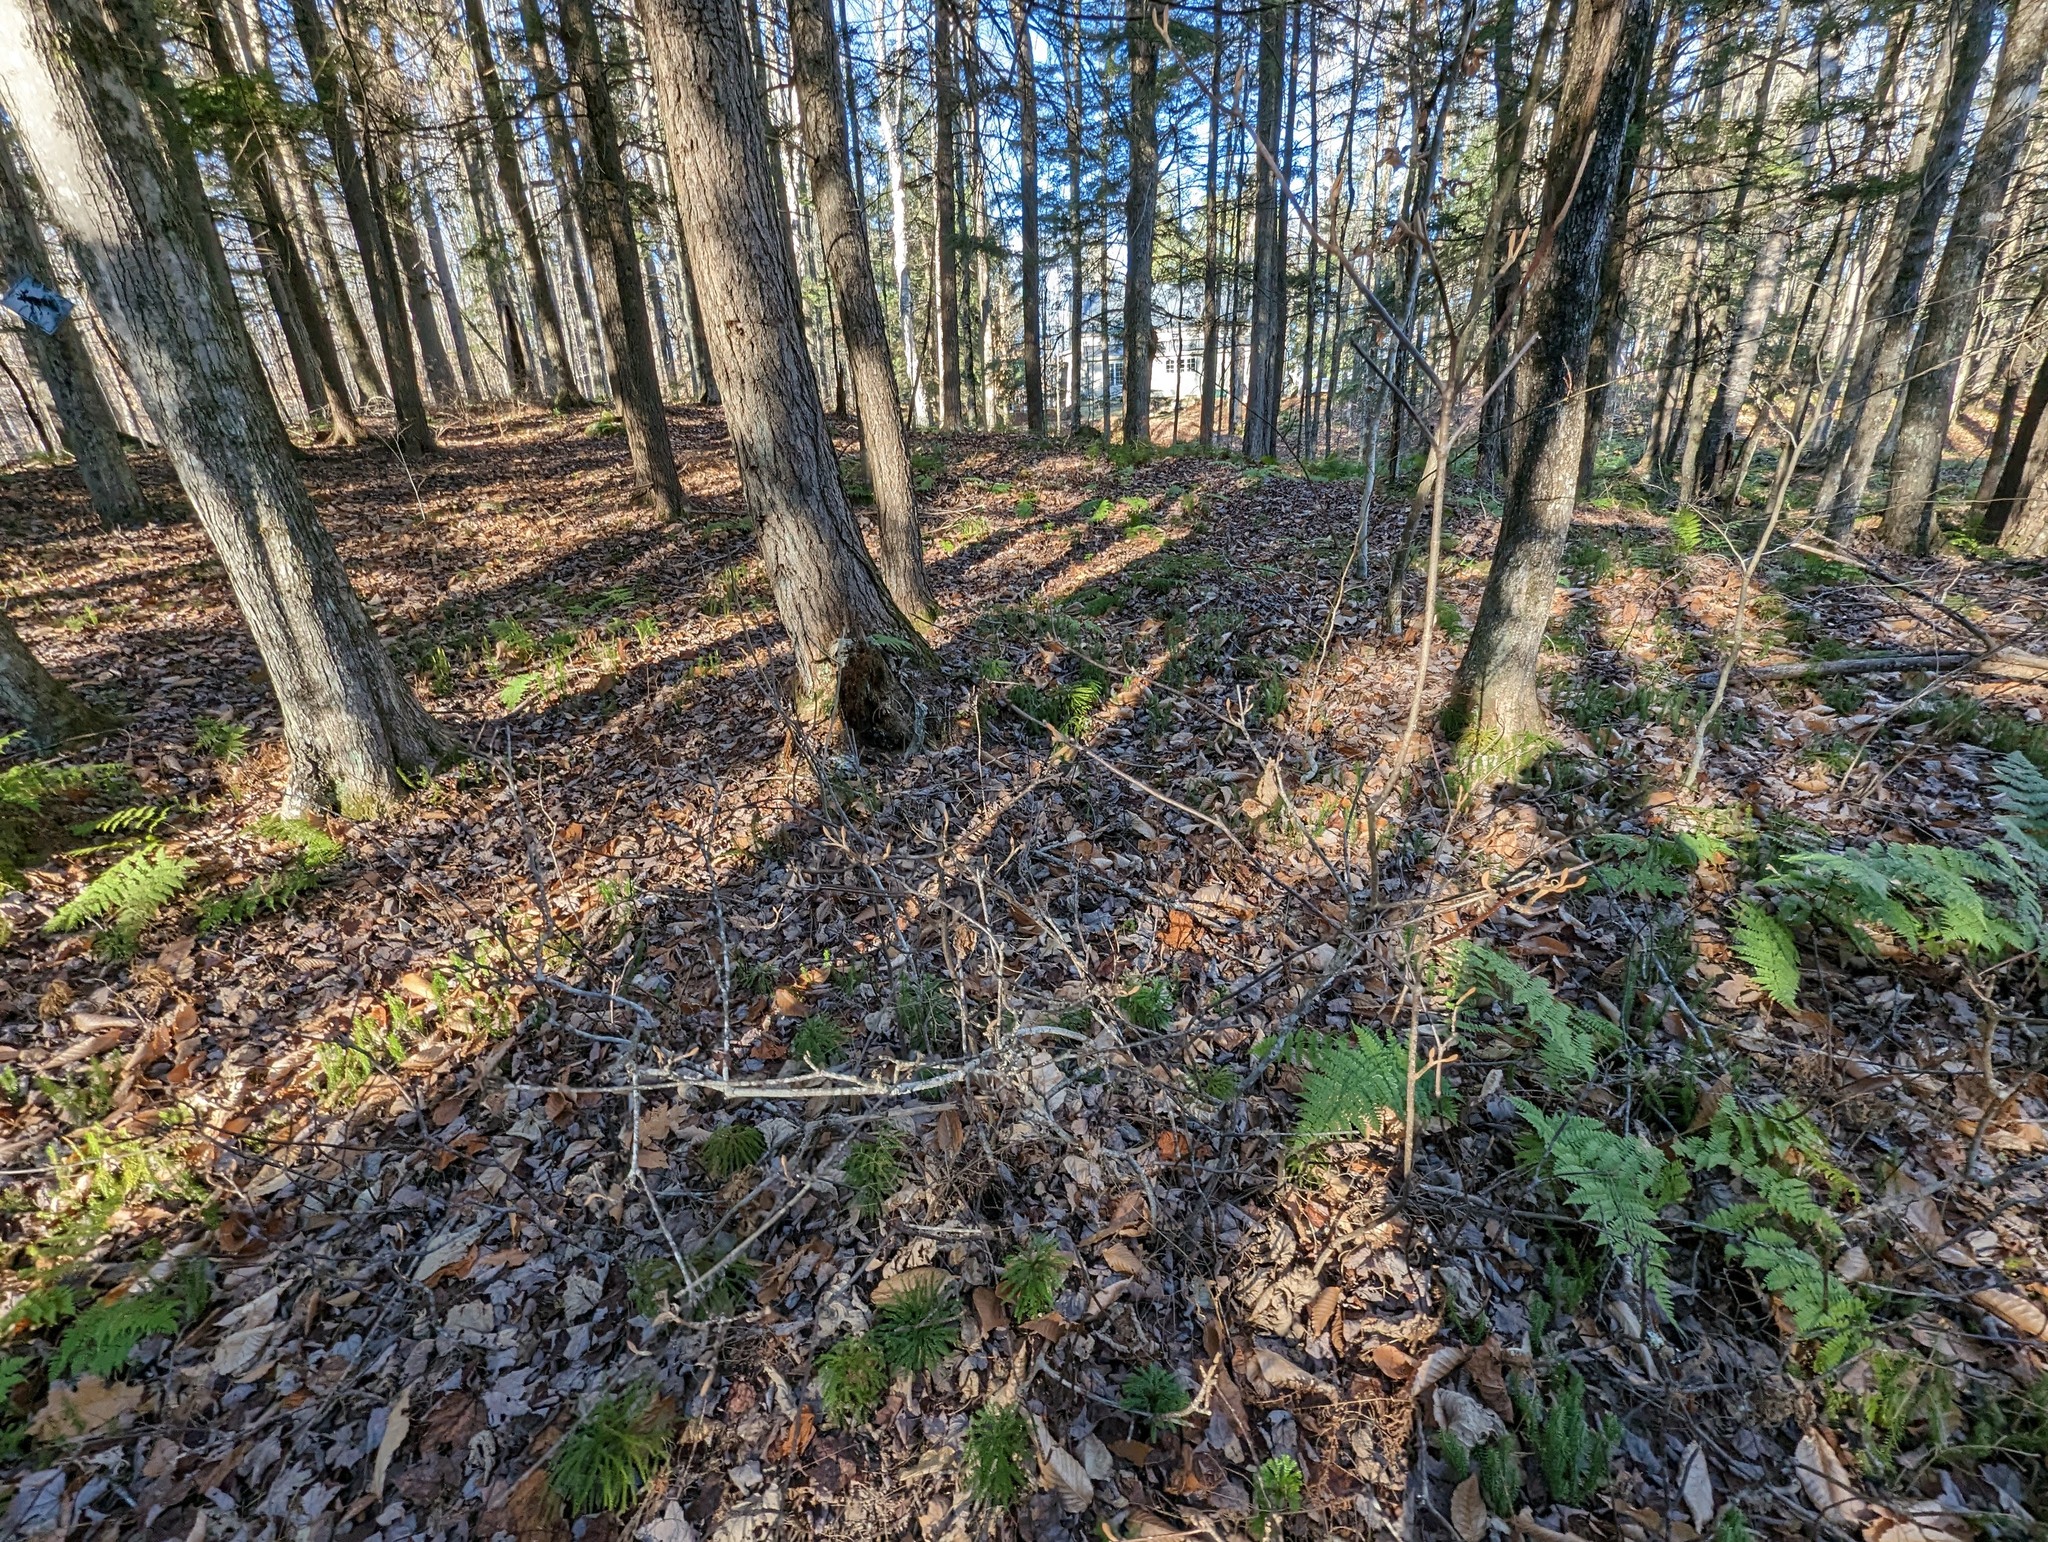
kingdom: Plantae
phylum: Tracheophyta
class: Magnoliopsida
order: Dipsacales
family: Viburnaceae
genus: Viburnum
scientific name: Viburnum lantanoides
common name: Hobblebush
